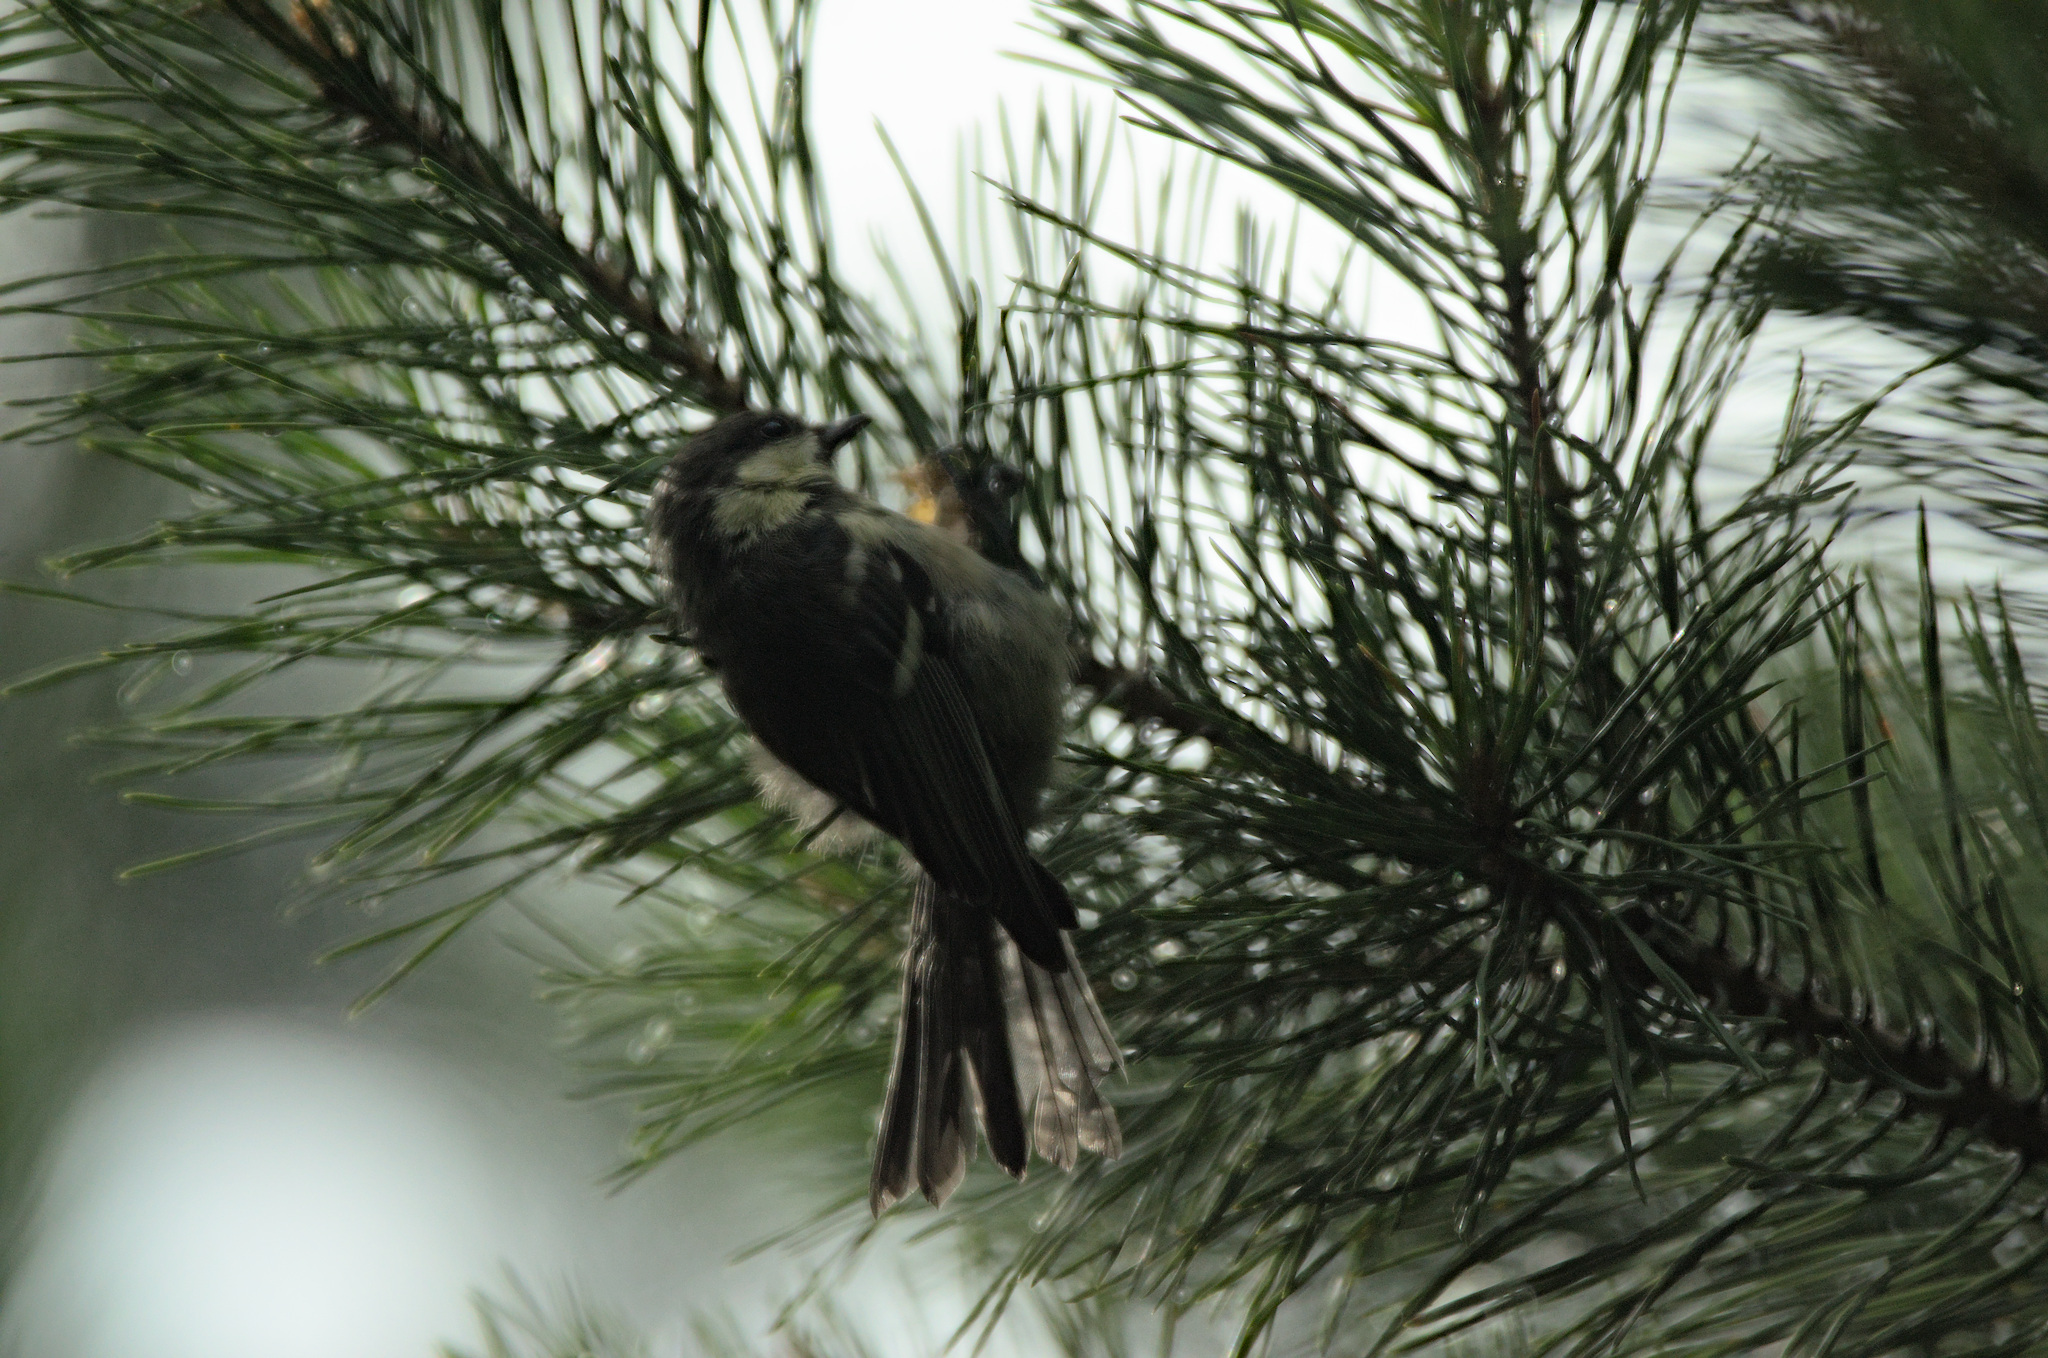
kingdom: Animalia
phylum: Chordata
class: Aves
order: Passeriformes
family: Paridae
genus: Periparus
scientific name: Periparus ater
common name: Coal tit
